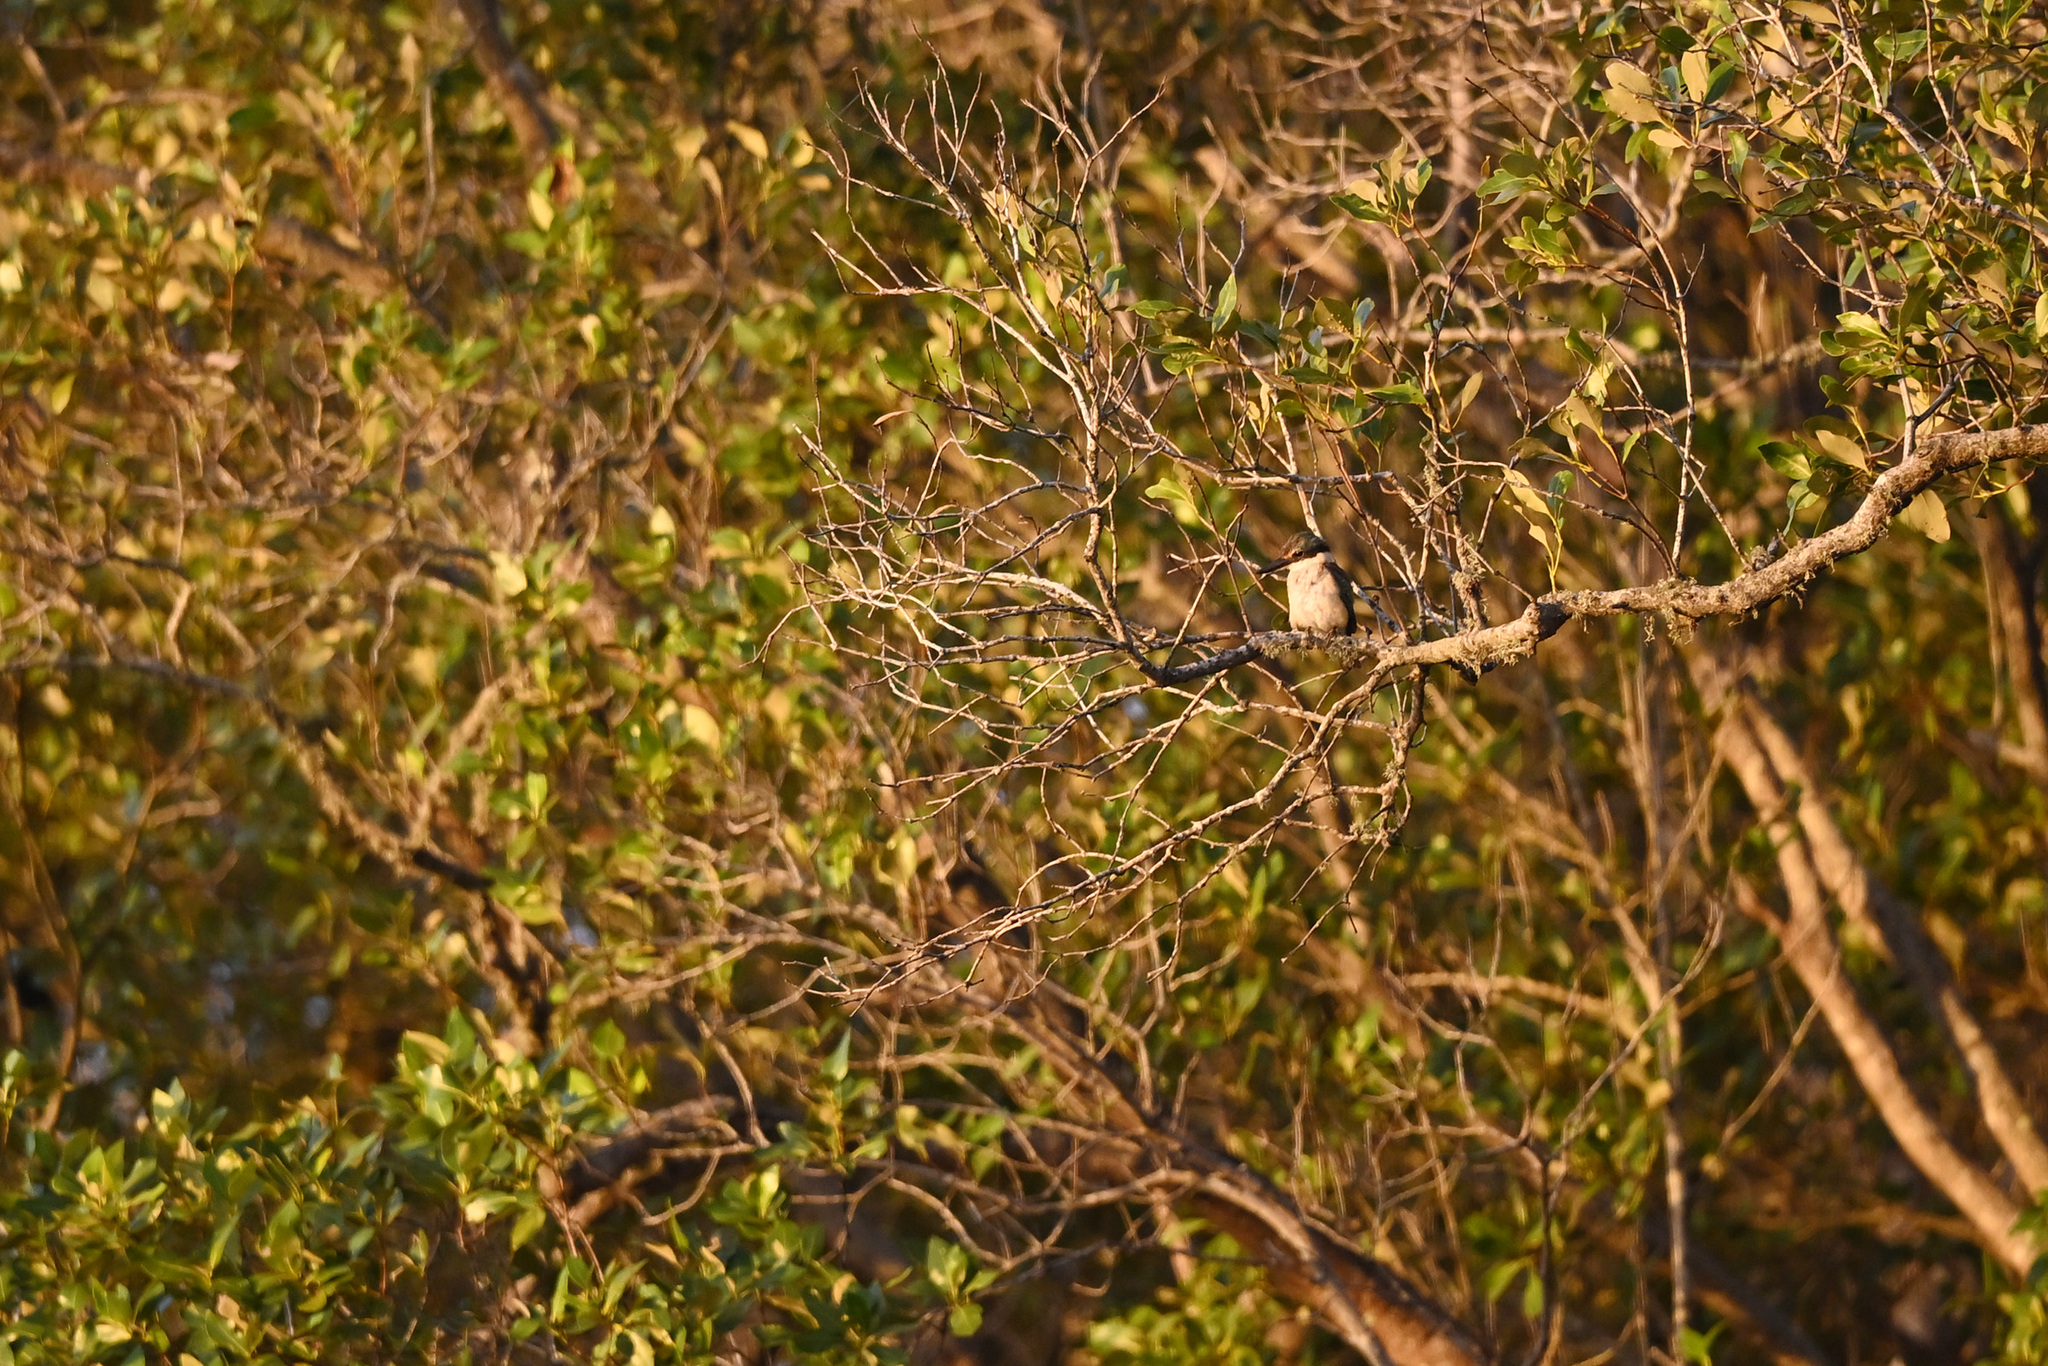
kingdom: Animalia
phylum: Chordata
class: Aves
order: Coraciiformes
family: Alcedinidae
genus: Todiramphus
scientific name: Todiramphus sanctus
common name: Sacred kingfisher
